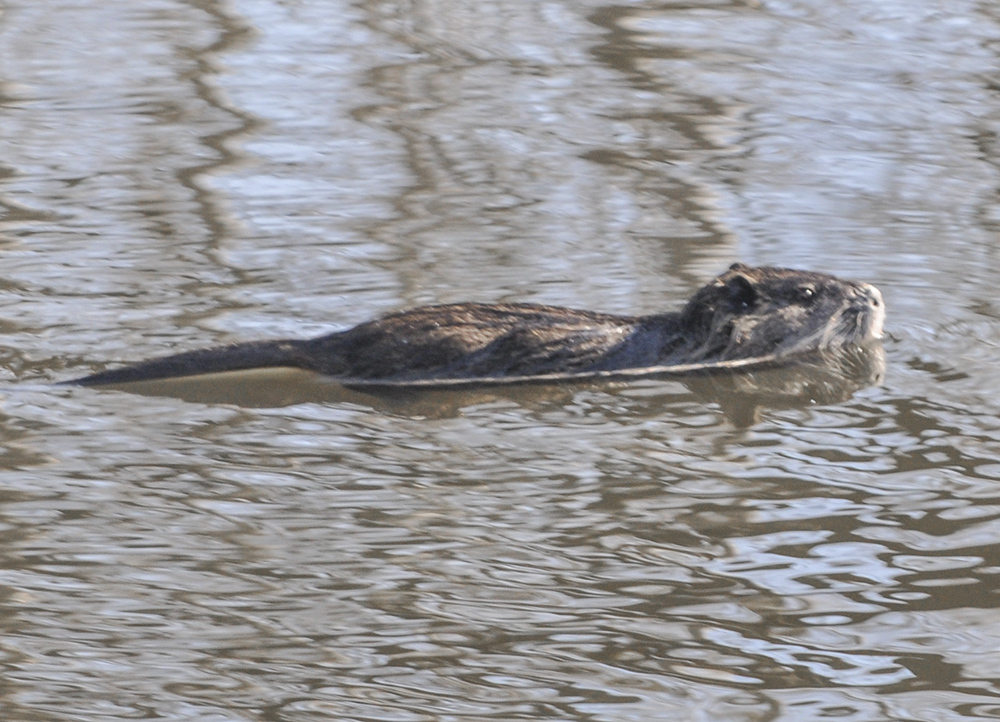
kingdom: Animalia
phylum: Chordata
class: Mammalia
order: Rodentia
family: Myocastoridae
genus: Myocastor
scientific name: Myocastor coypus
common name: Coypu
